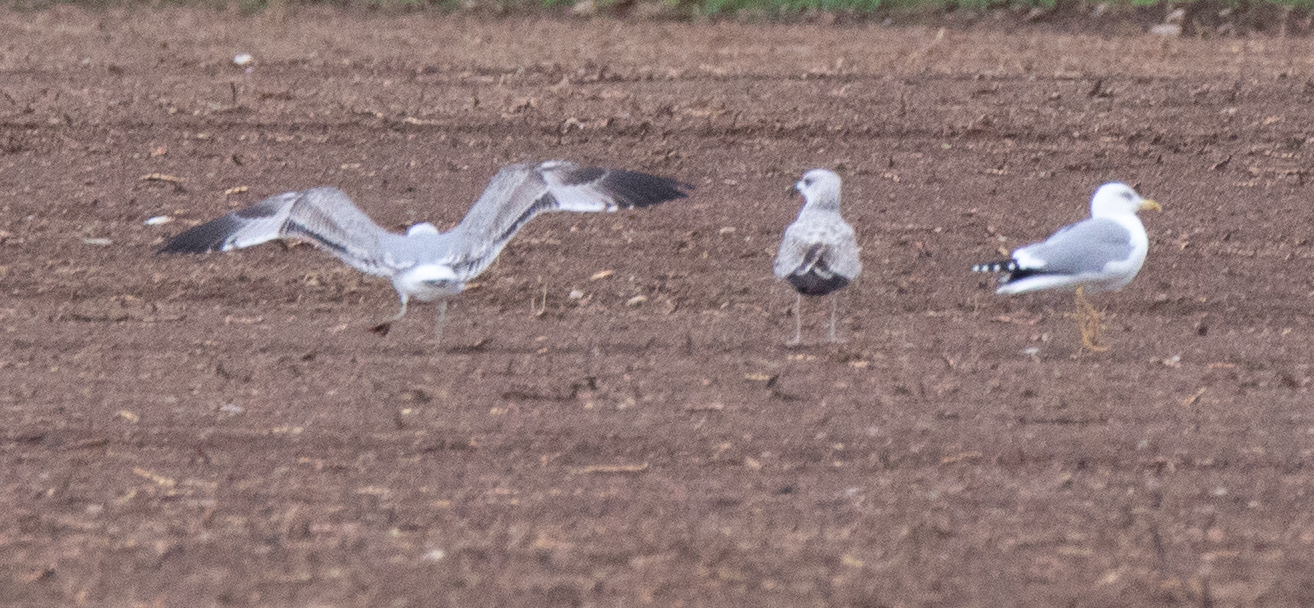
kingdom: Animalia
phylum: Chordata
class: Aves
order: Charadriiformes
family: Laridae
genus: Larus
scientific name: Larus michahellis
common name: Yellow-legged gull
